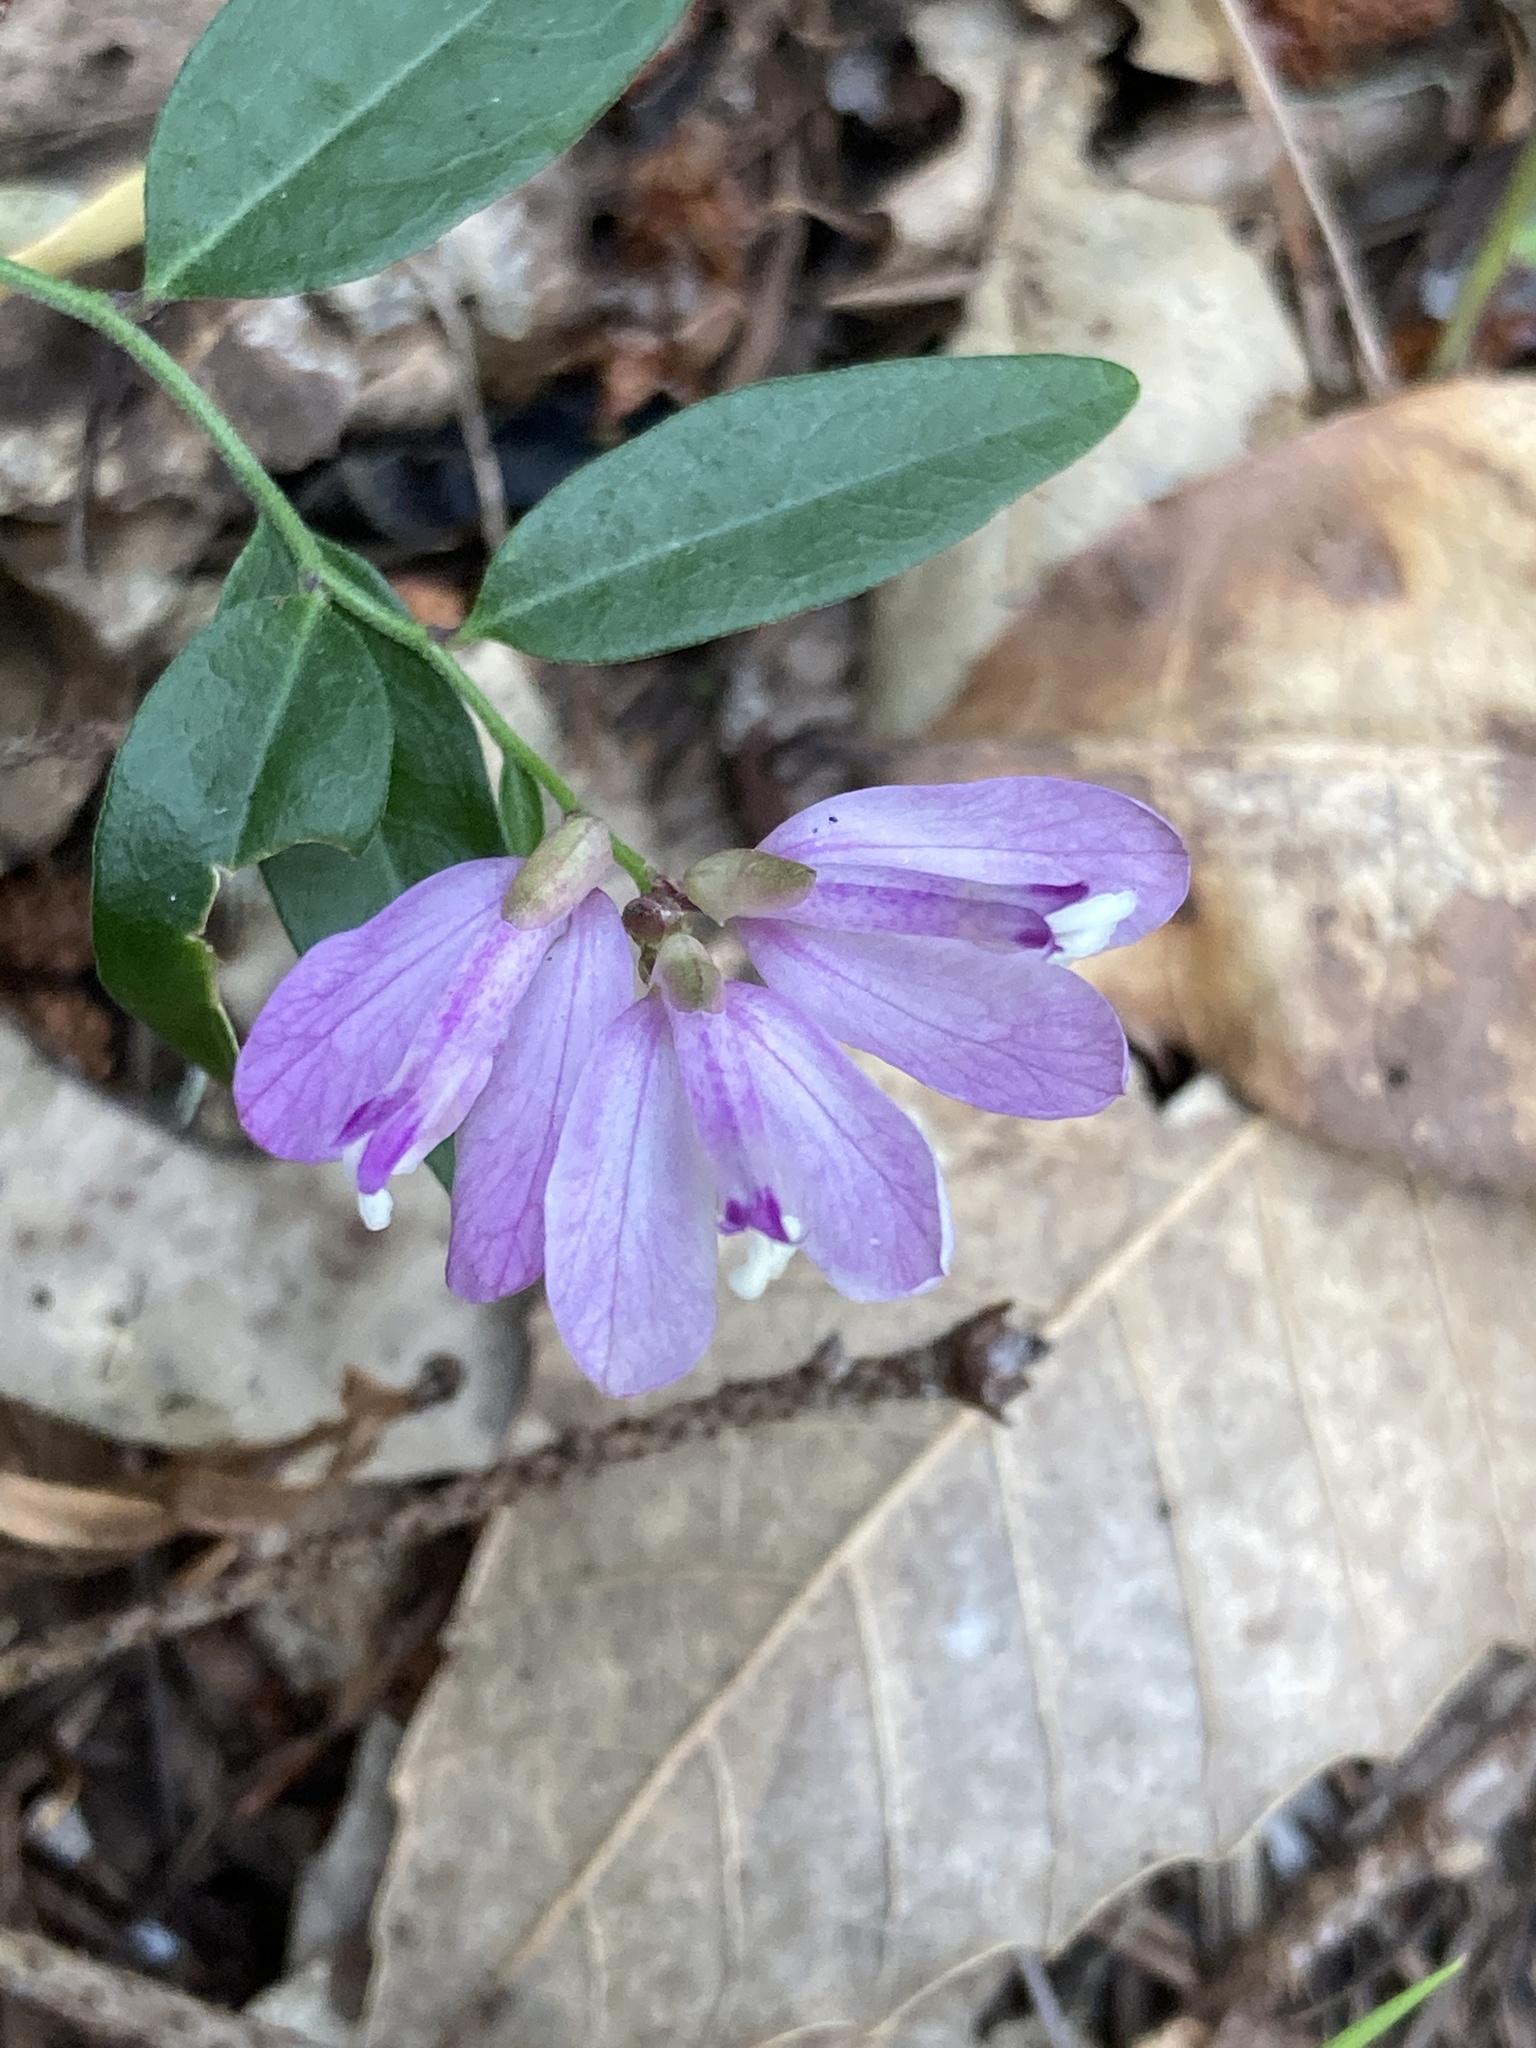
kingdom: Plantae
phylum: Tracheophyta
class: Magnoliopsida
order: Fabales
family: Polygalaceae
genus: Rhinotropis
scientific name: Rhinotropis californica
